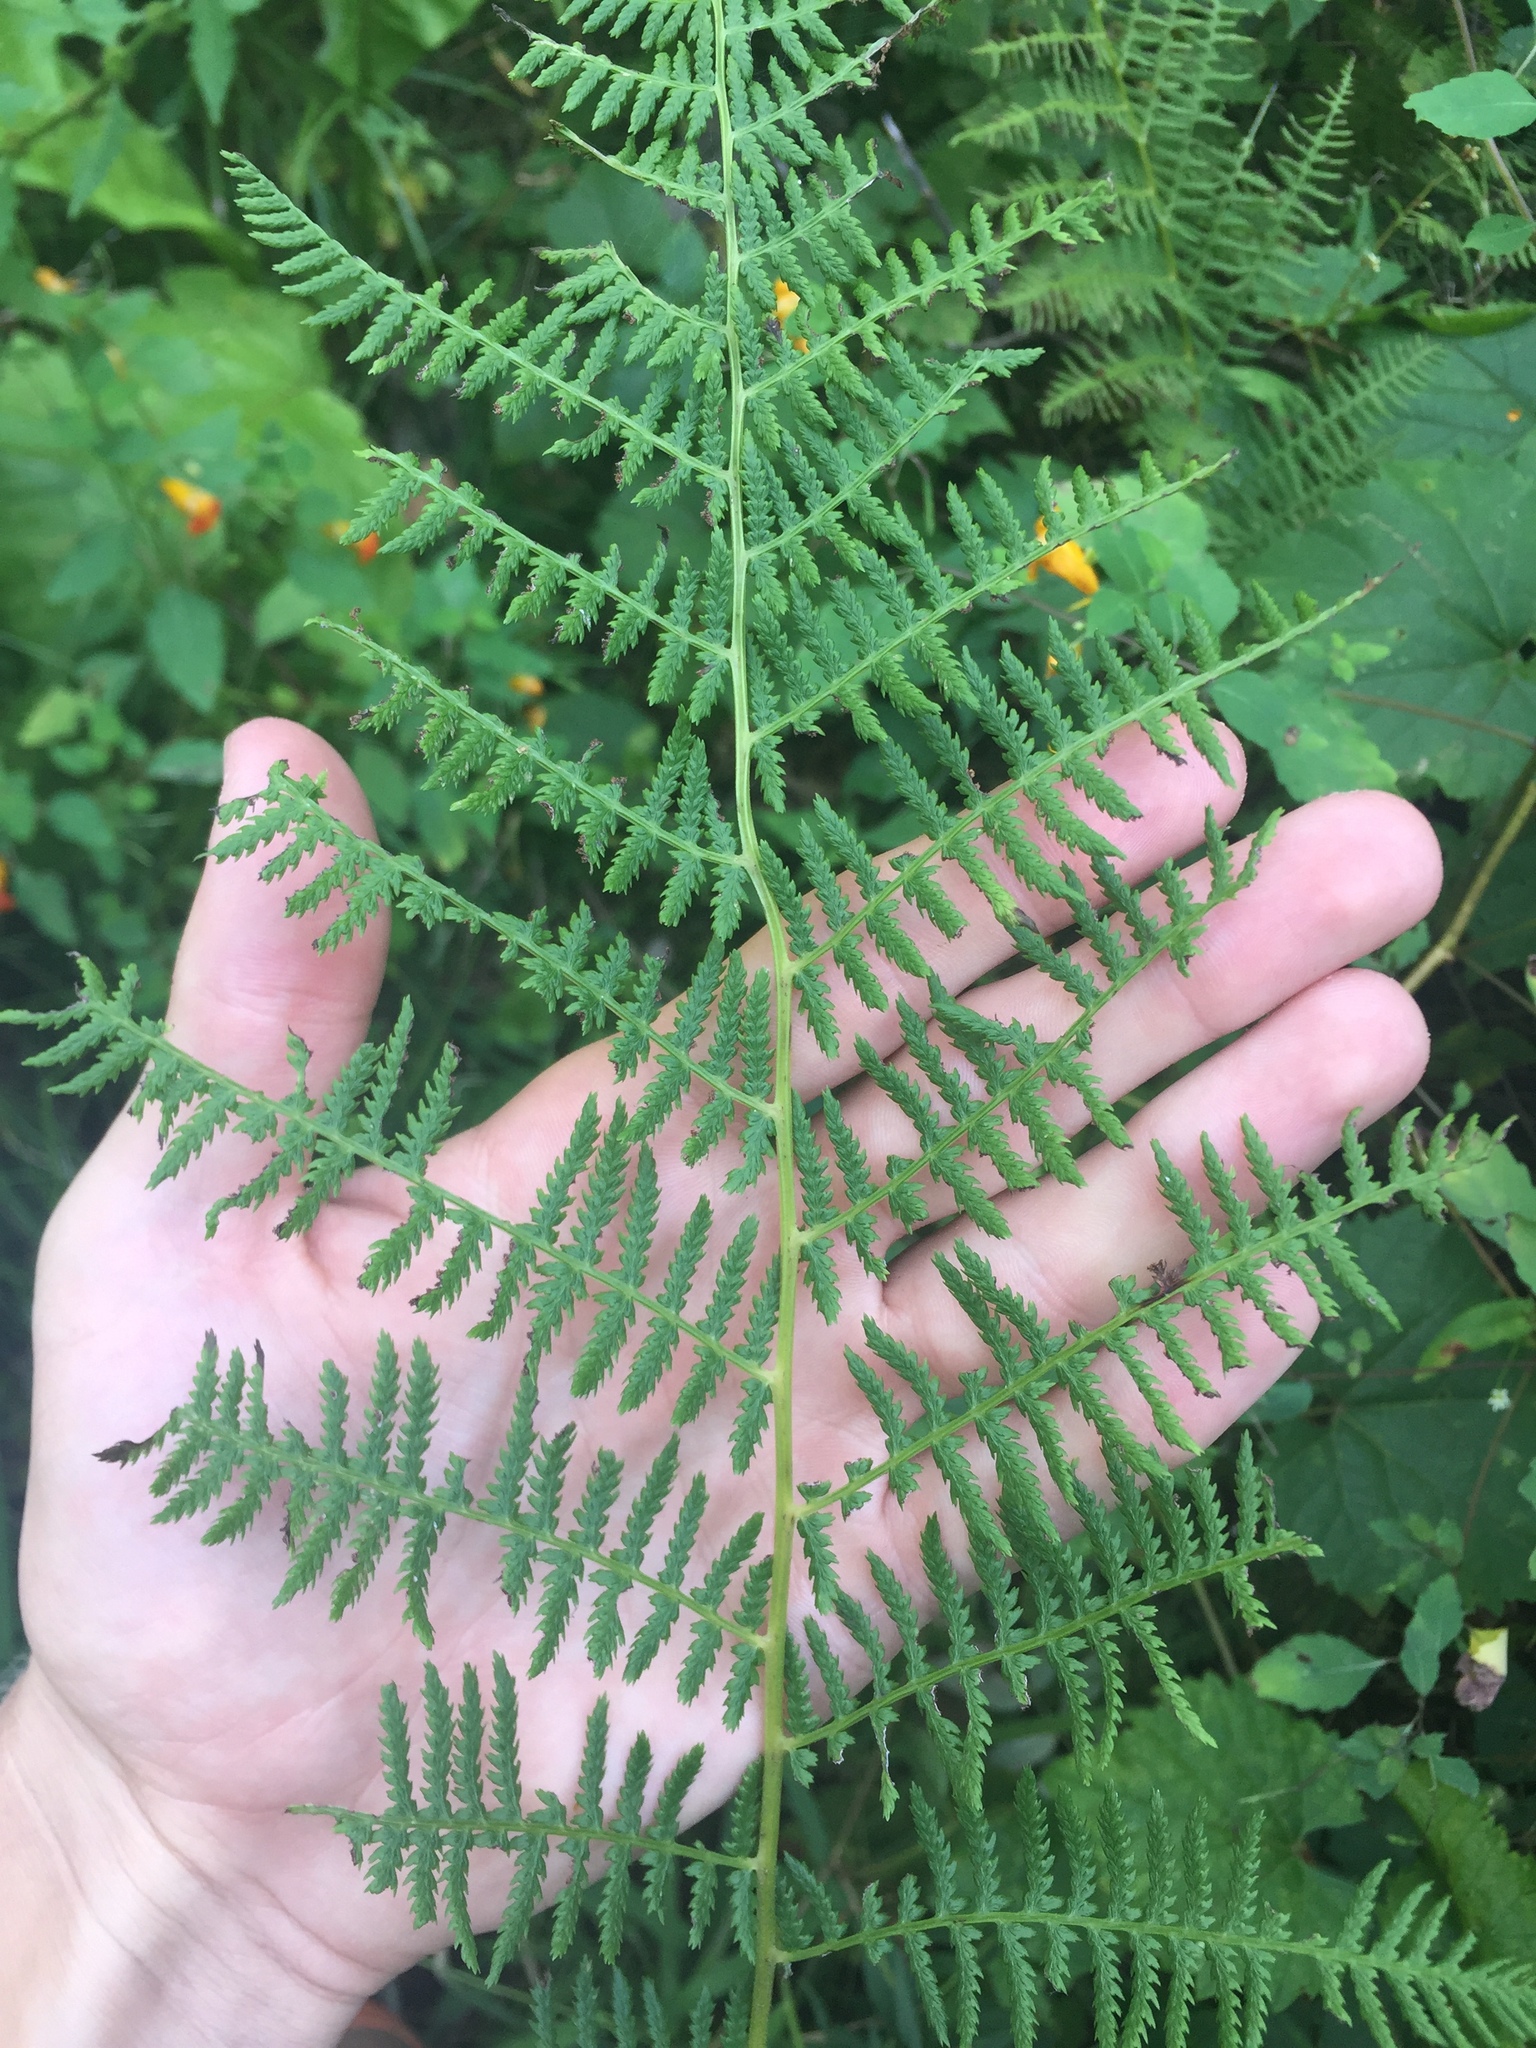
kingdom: Plantae
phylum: Tracheophyta
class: Polypodiopsida
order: Polypodiales
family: Athyriaceae
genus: Athyrium
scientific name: Athyrium angustum
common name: Northern lady fern
